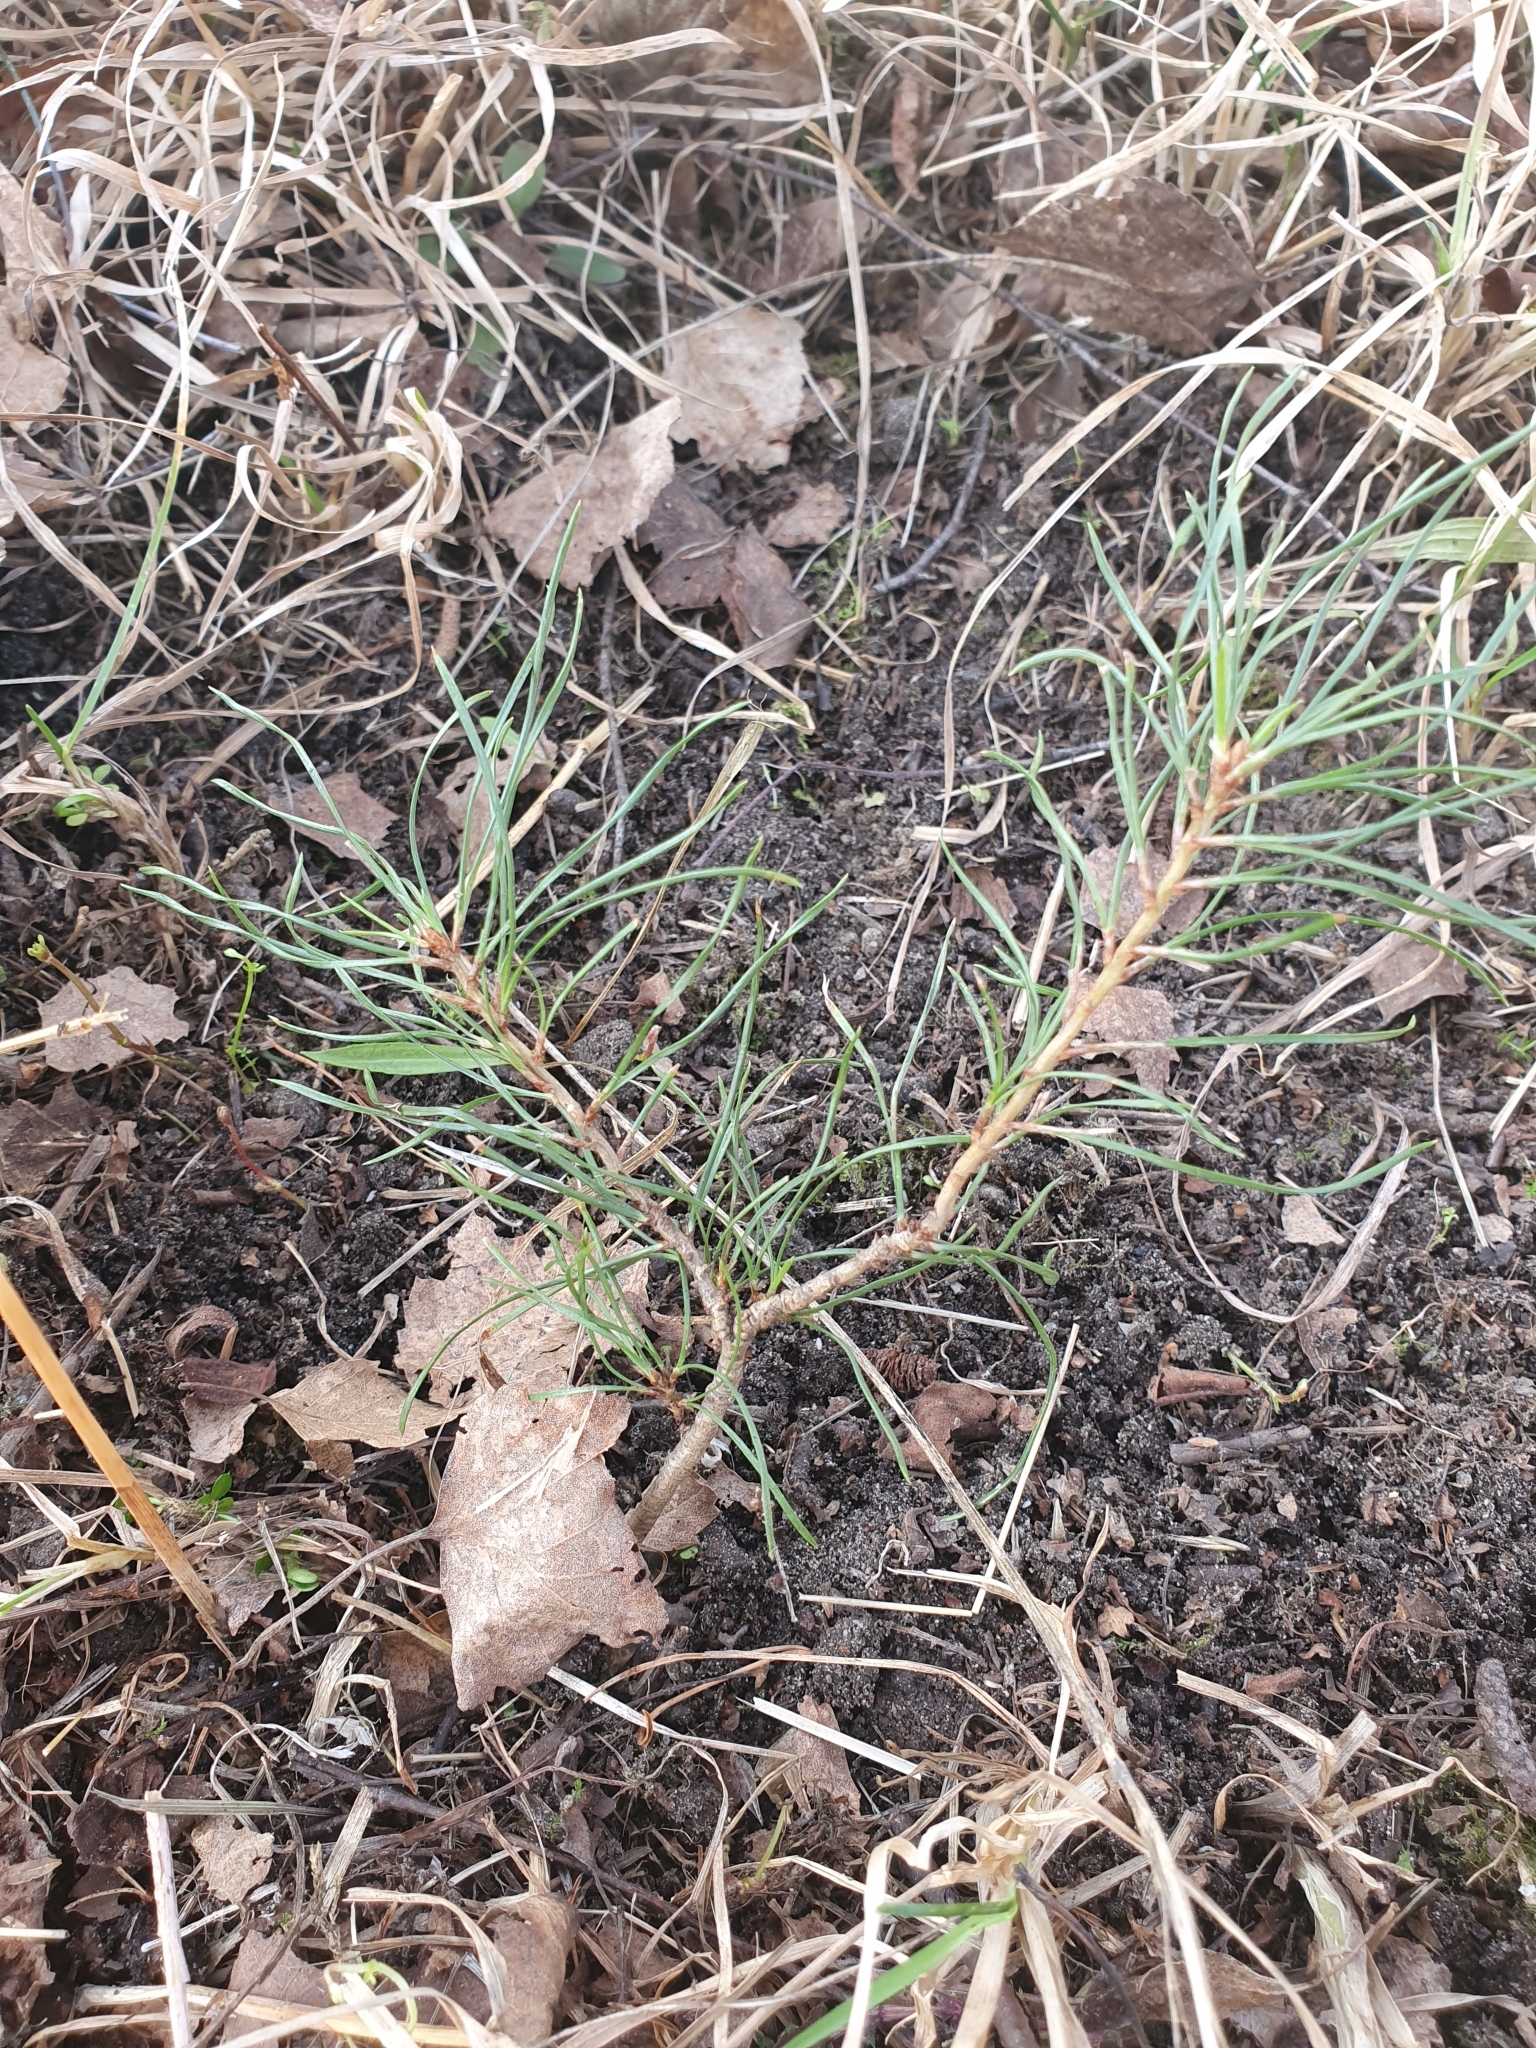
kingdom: Plantae
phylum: Tracheophyta
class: Pinopsida
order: Pinales
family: Pinaceae
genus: Pinus
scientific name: Pinus sylvestris
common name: Scots pine
